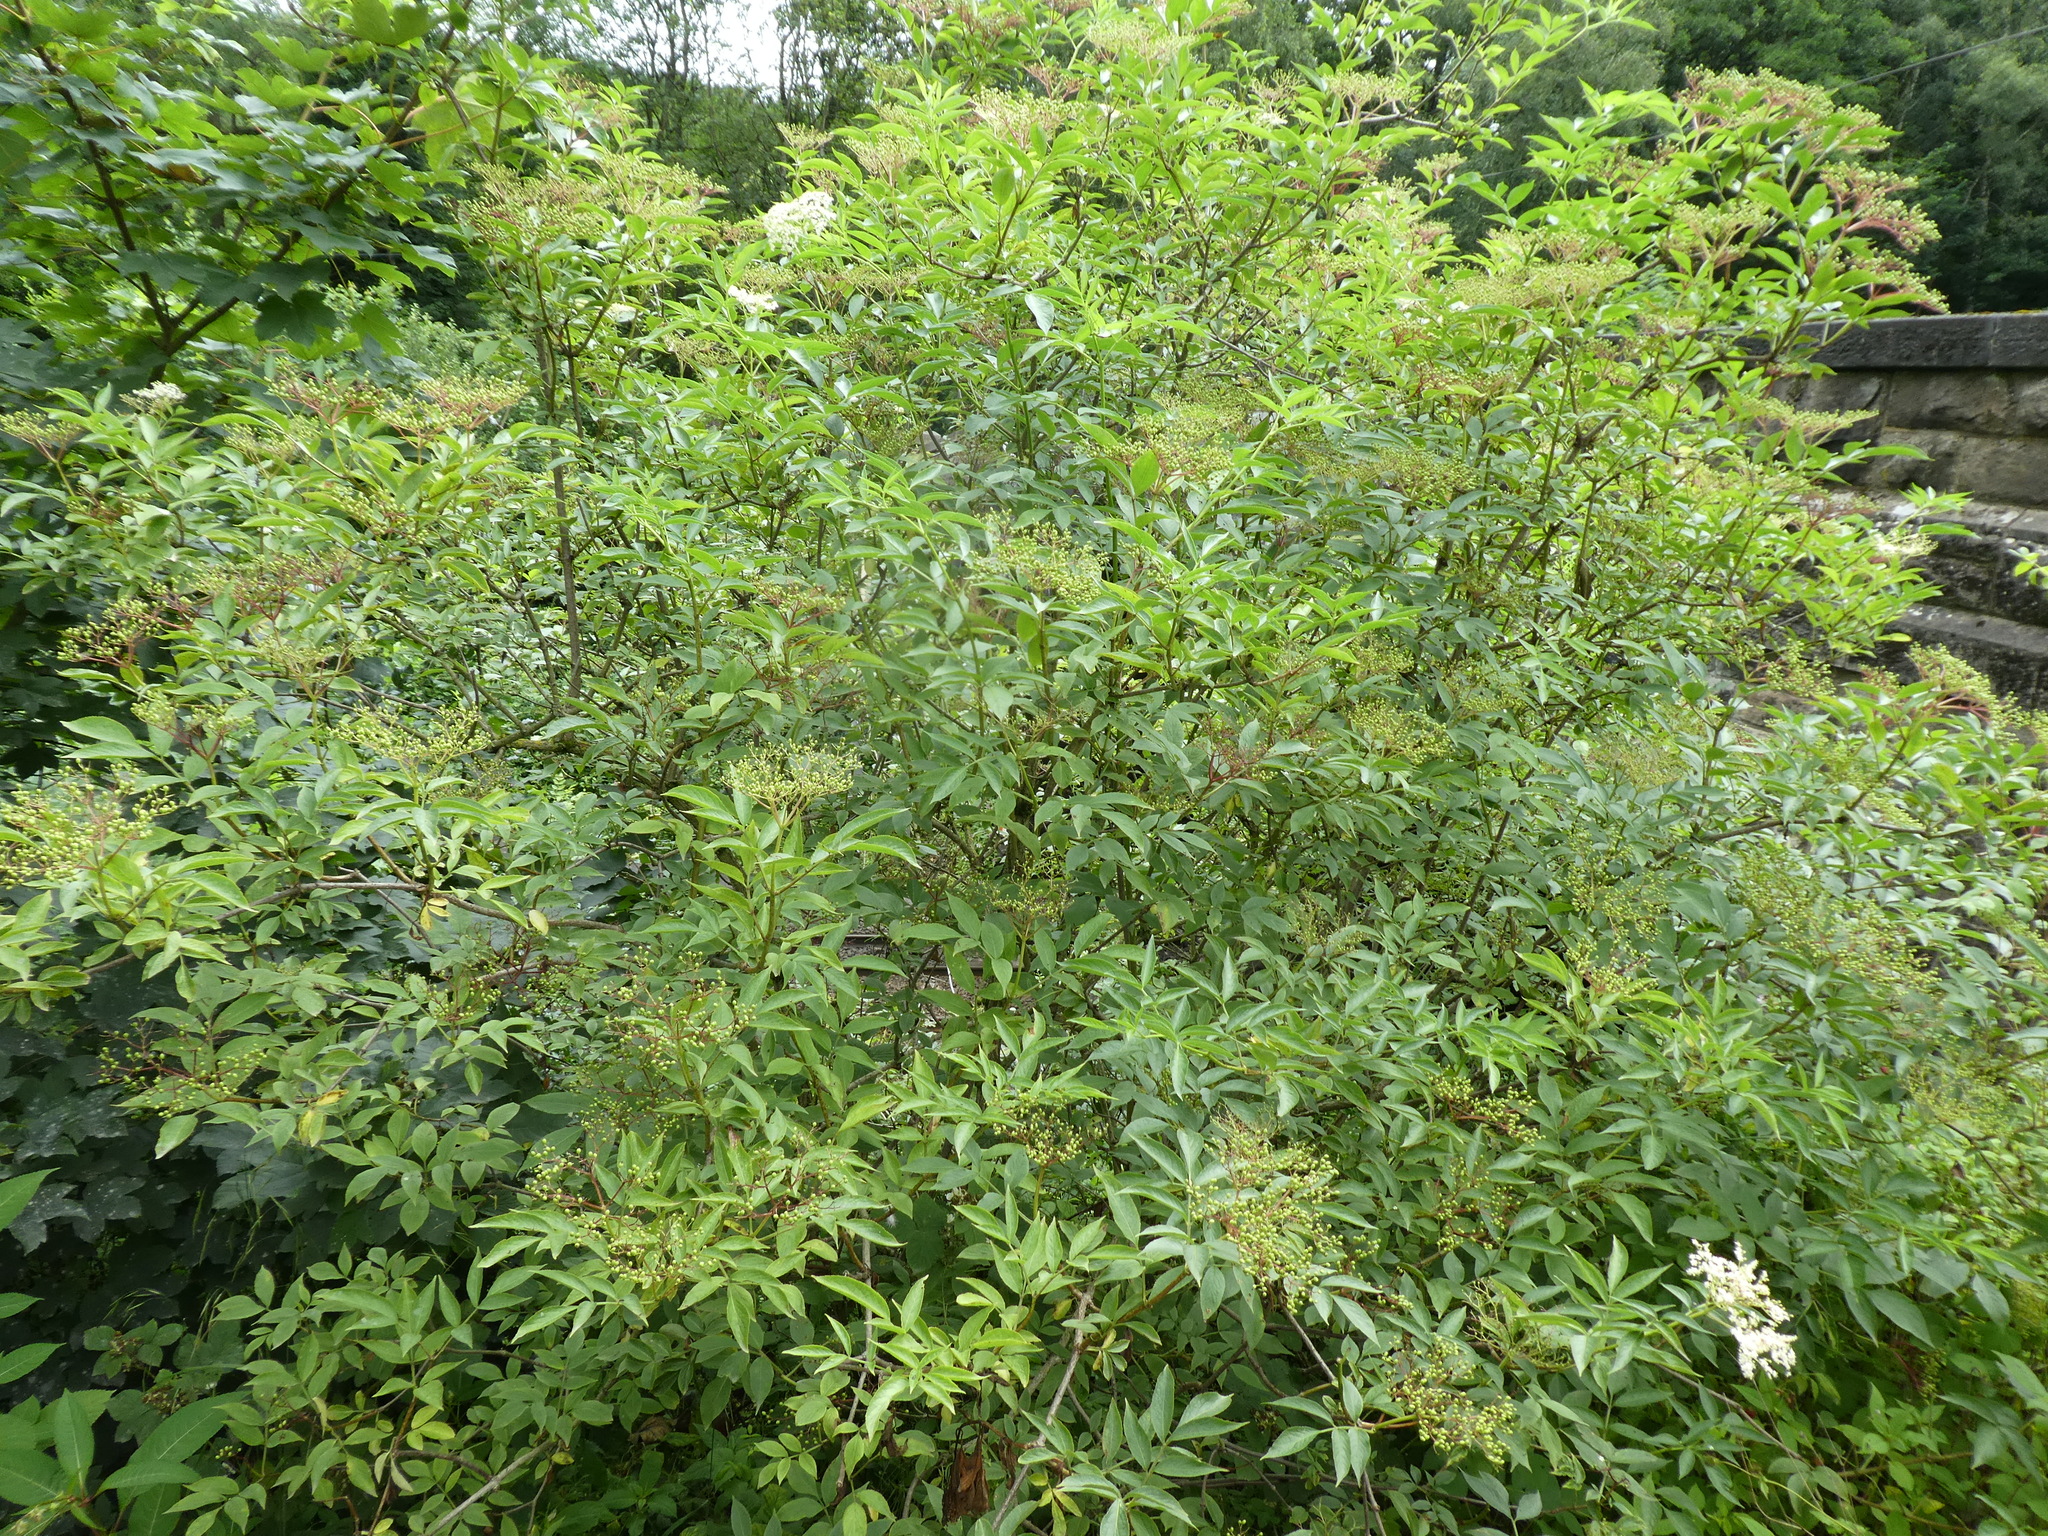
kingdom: Plantae
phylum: Tracheophyta
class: Magnoliopsida
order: Dipsacales
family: Viburnaceae
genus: Sambucus
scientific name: Sambucus nigra
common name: Elder
